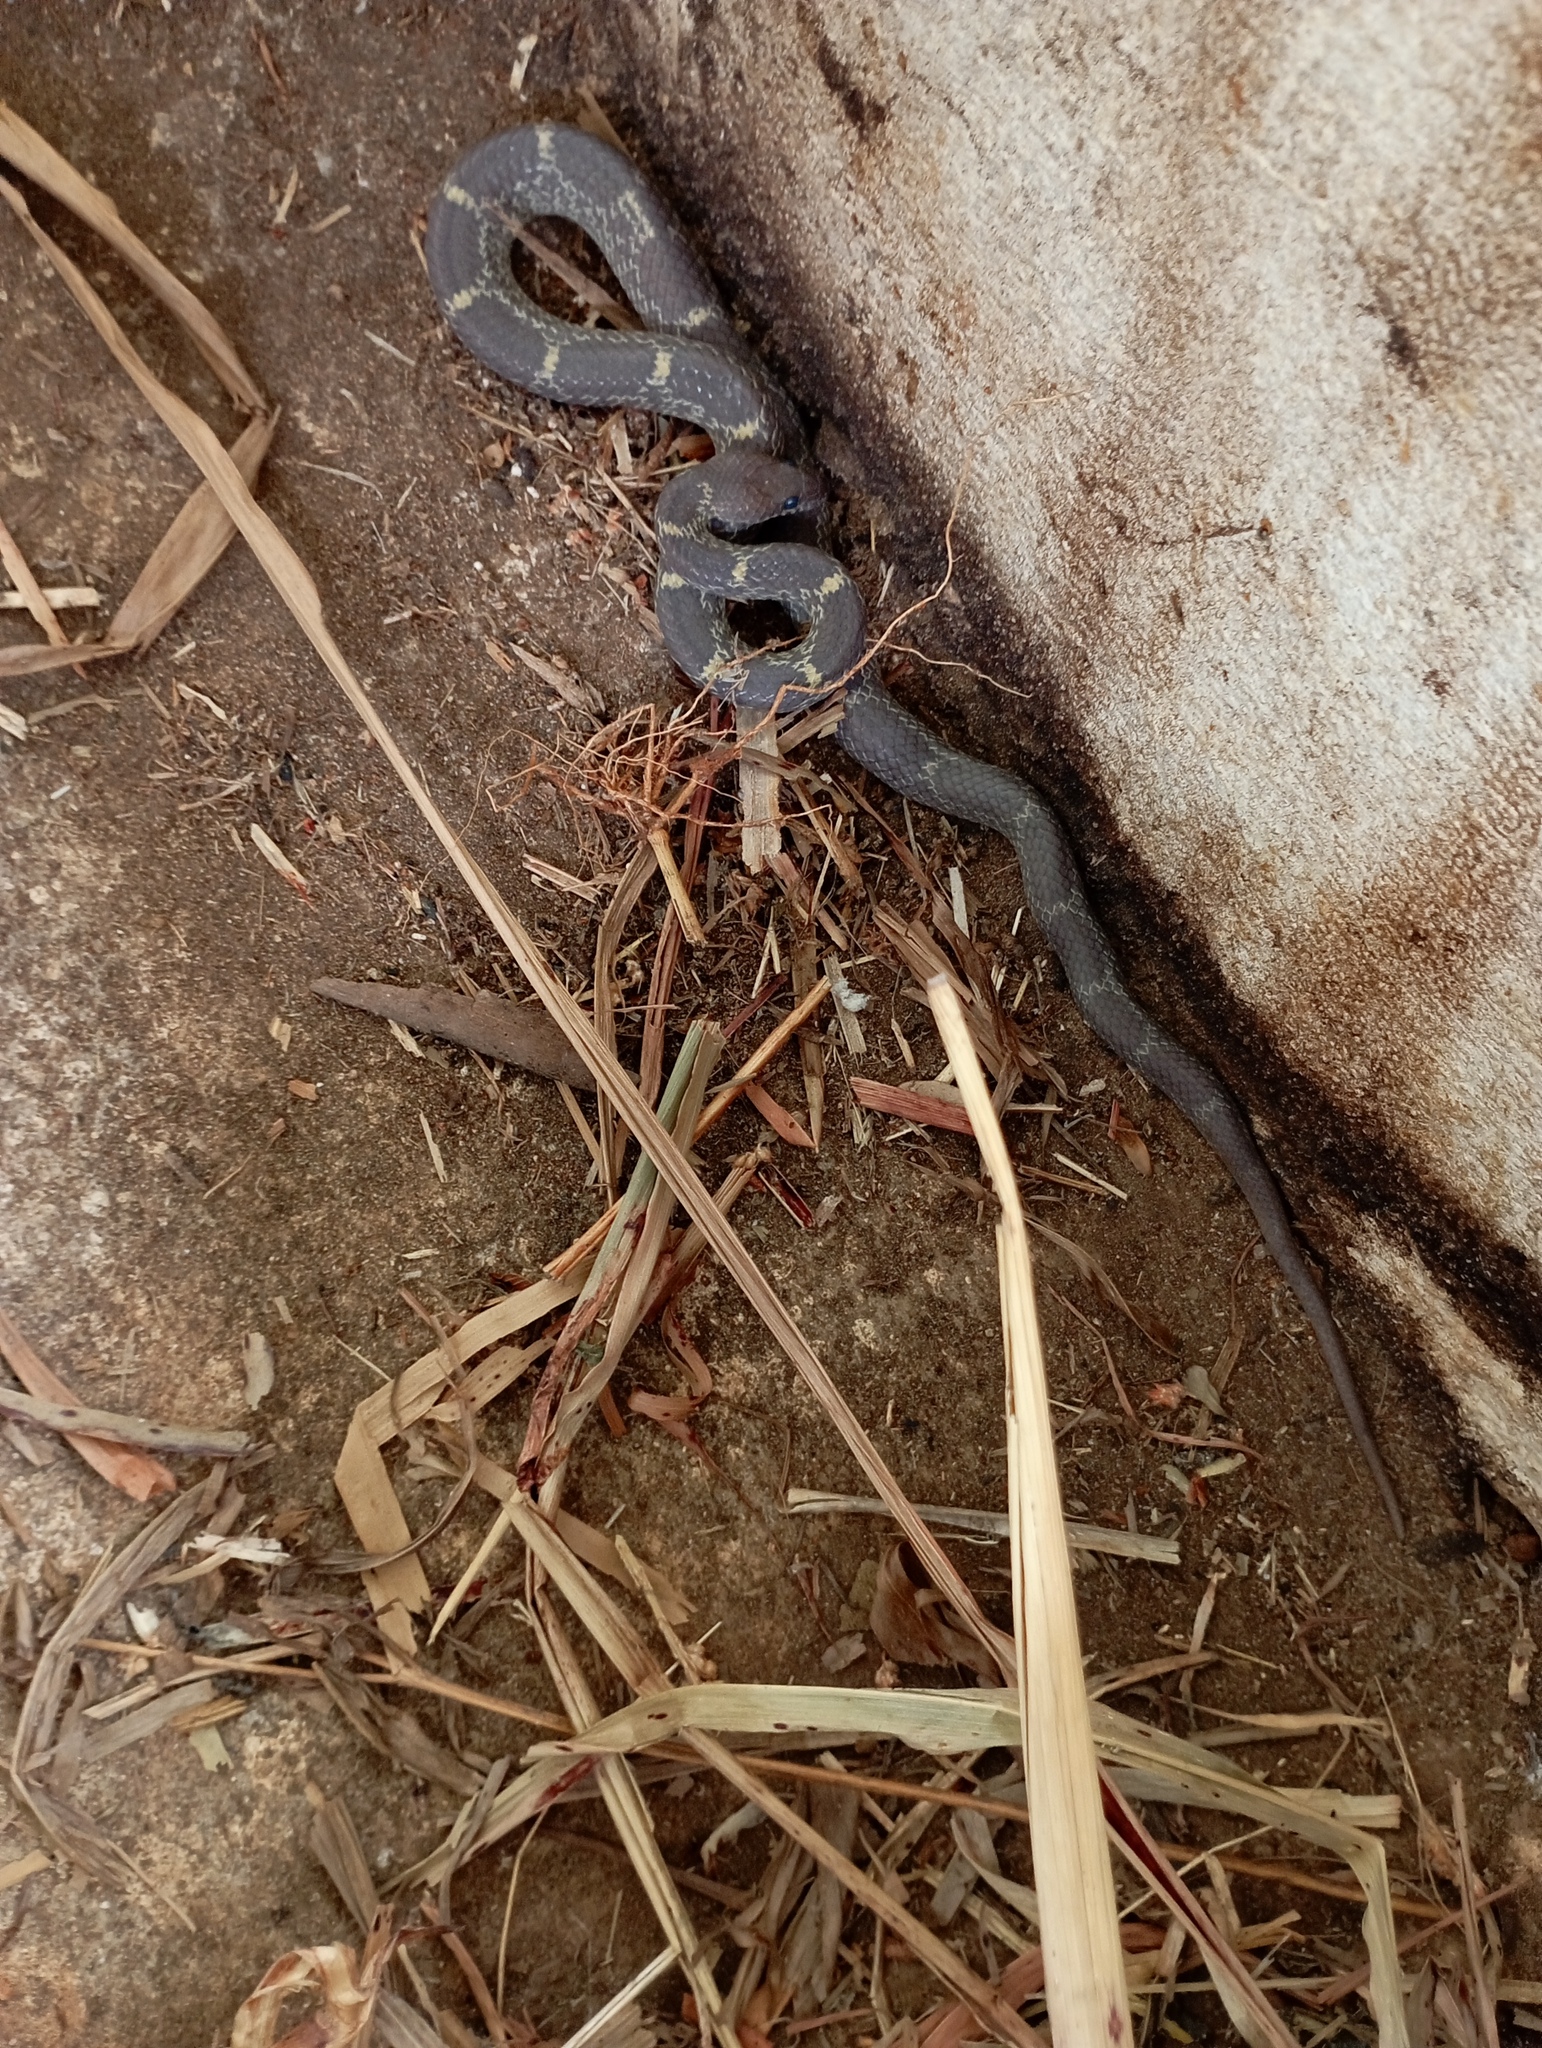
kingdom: Animalia
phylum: Chordata
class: Squamata
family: Colubridae
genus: Lycodon
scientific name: Lycodon fasciolatus
